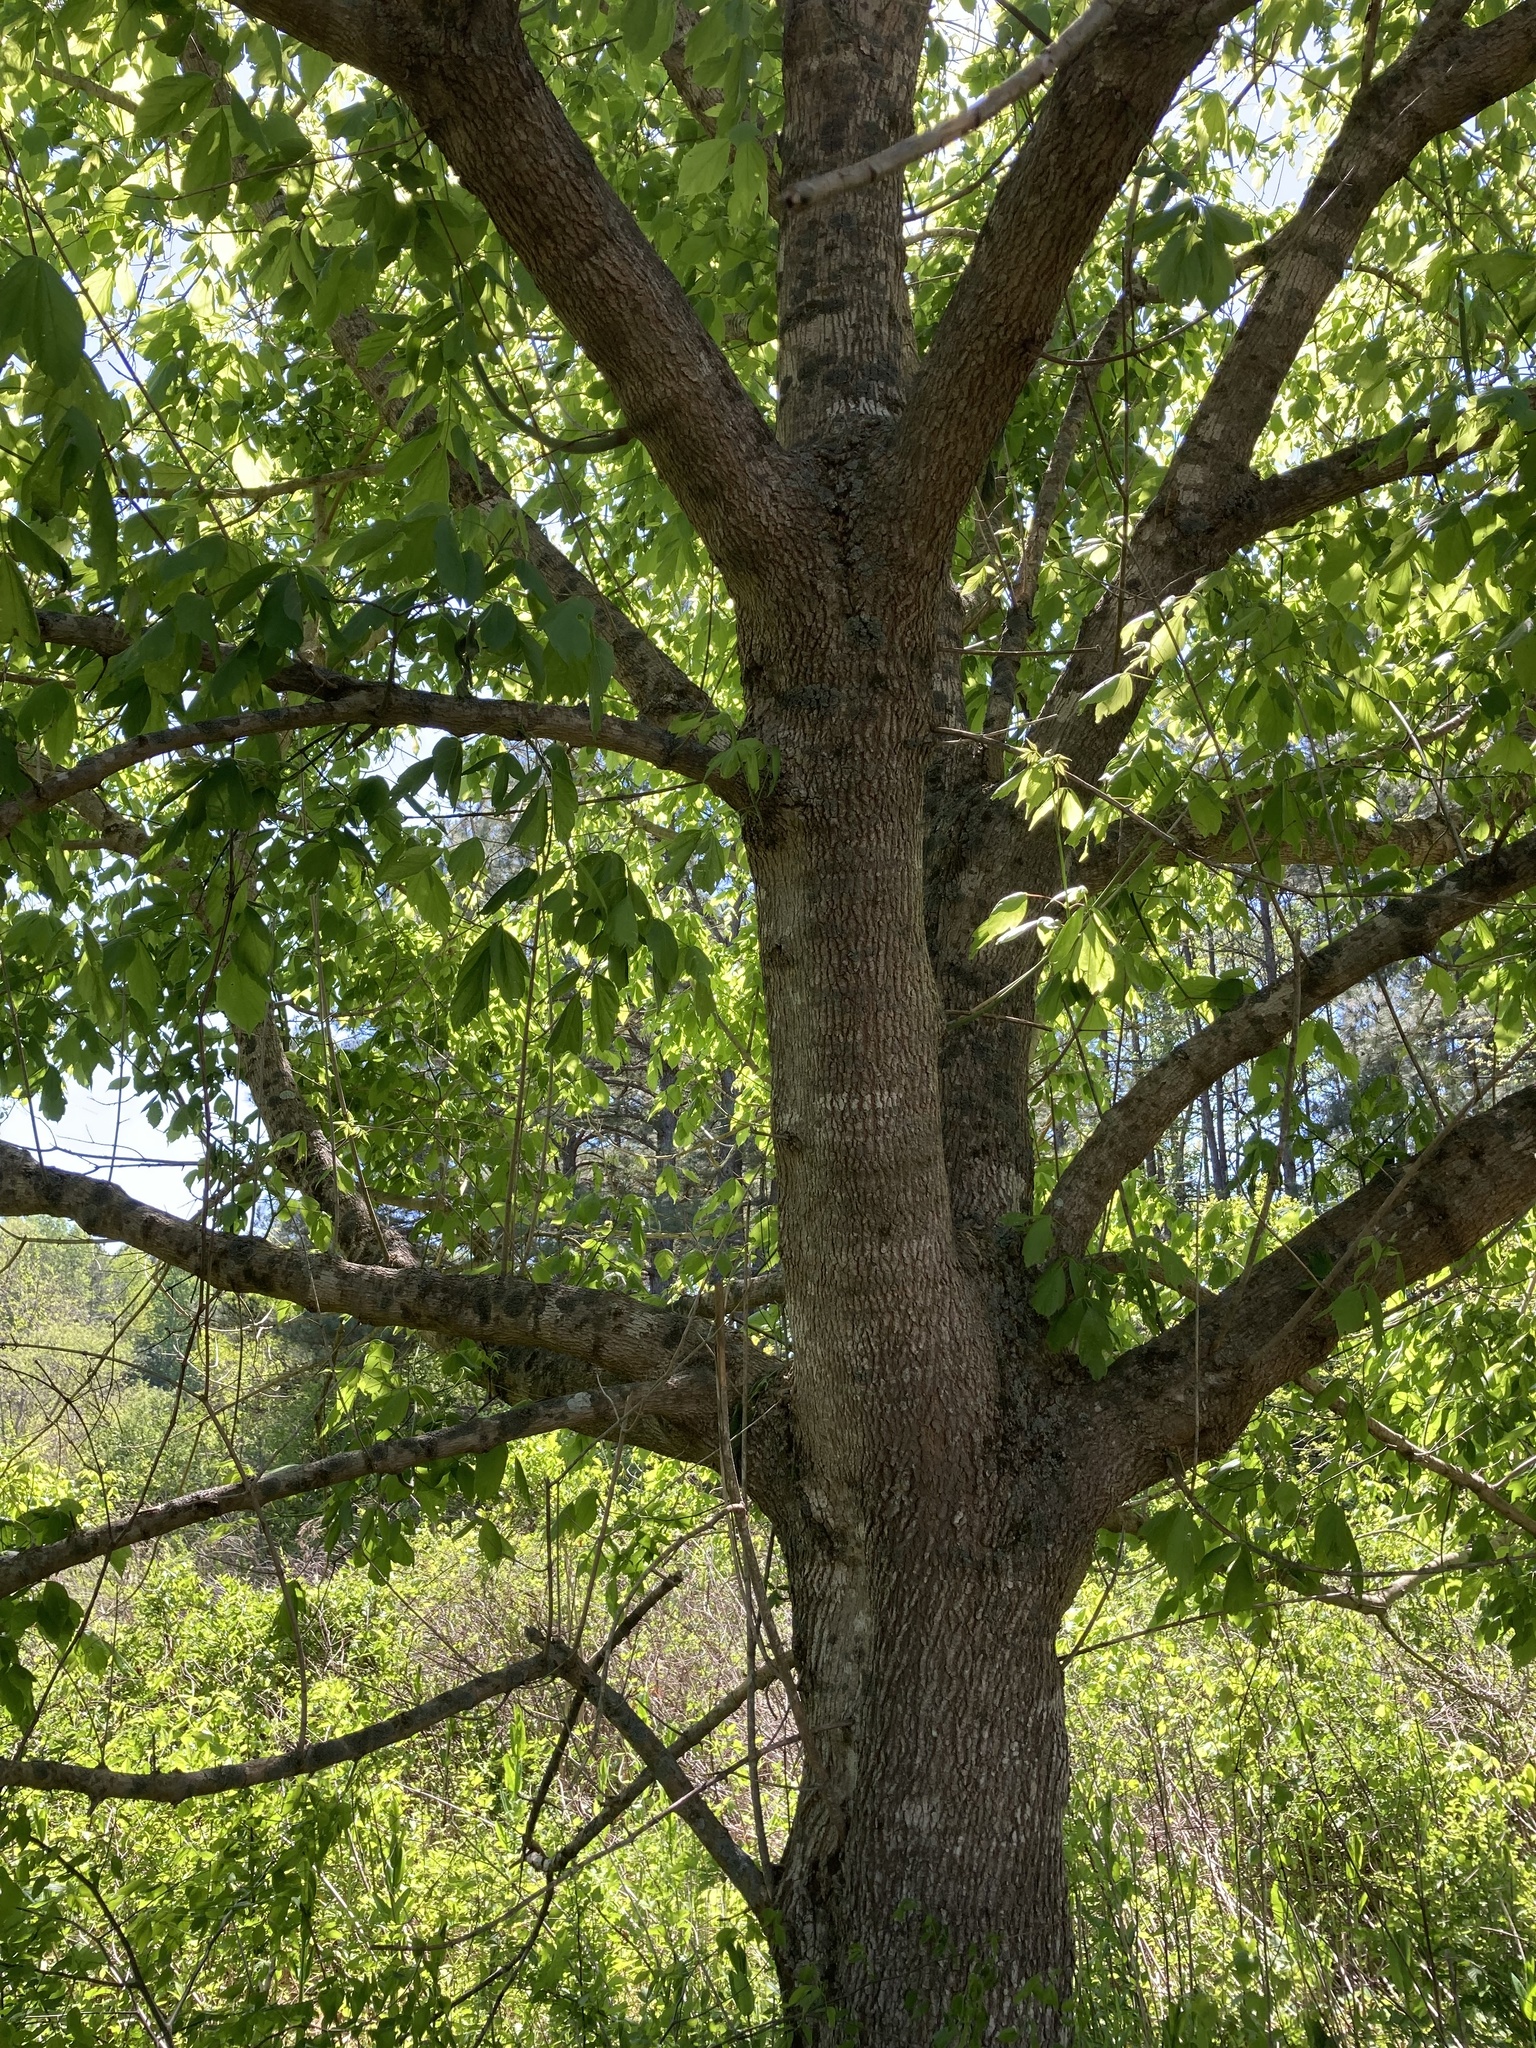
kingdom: Plantae
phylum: Tracheophyta
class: Magnoliopsida
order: Sapindales
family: Sapindaceae
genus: Acer
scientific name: Acer negundo
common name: Ashleaf maple
